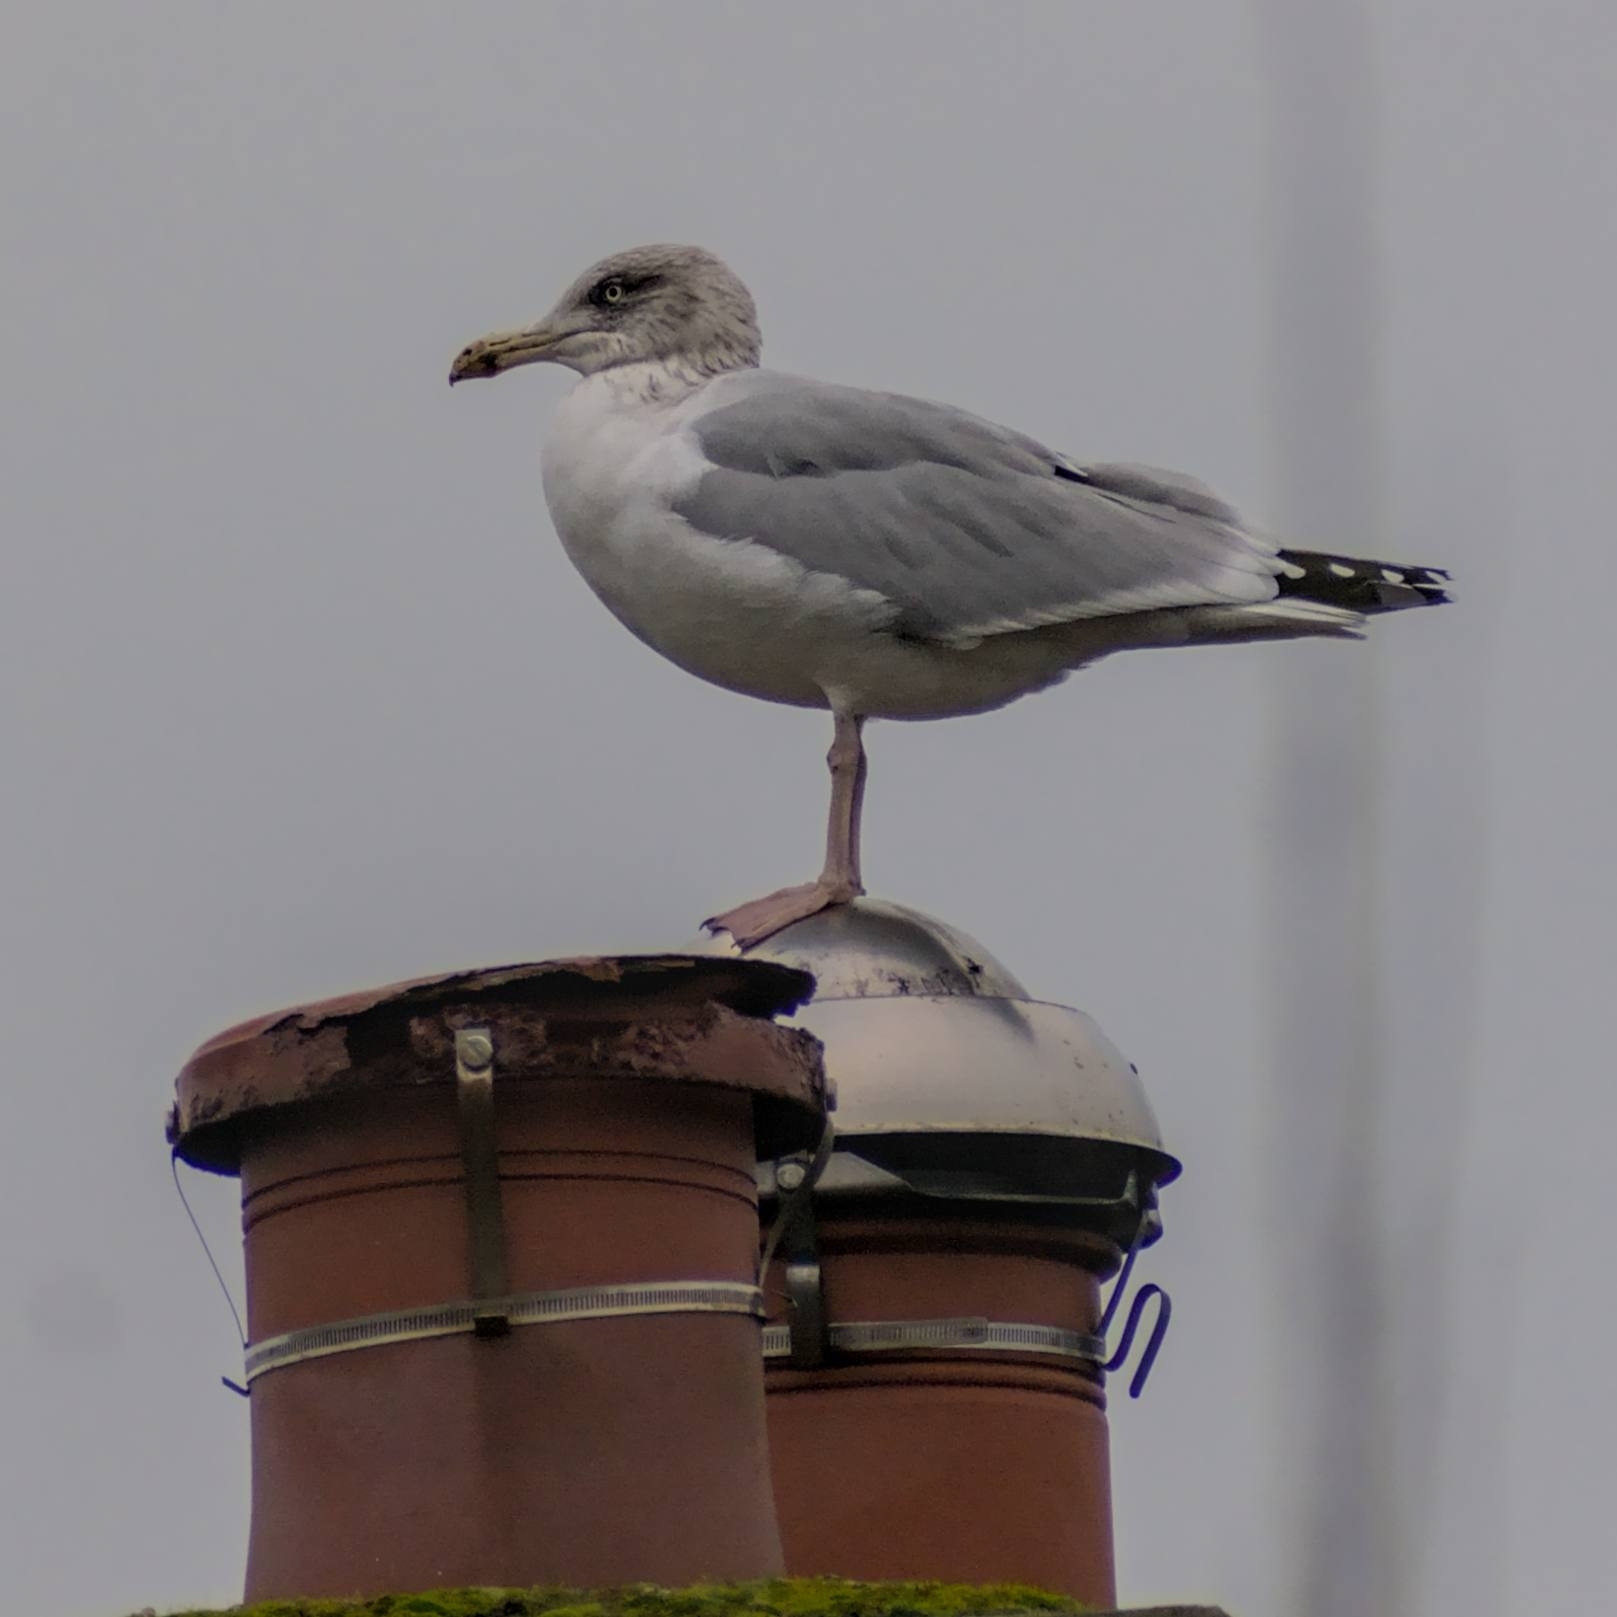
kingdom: Animalia
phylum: Chordata
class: Aves
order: Charadriiformes
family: Laridae
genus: Larus
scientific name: Larus argentatus
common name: Herring gull
